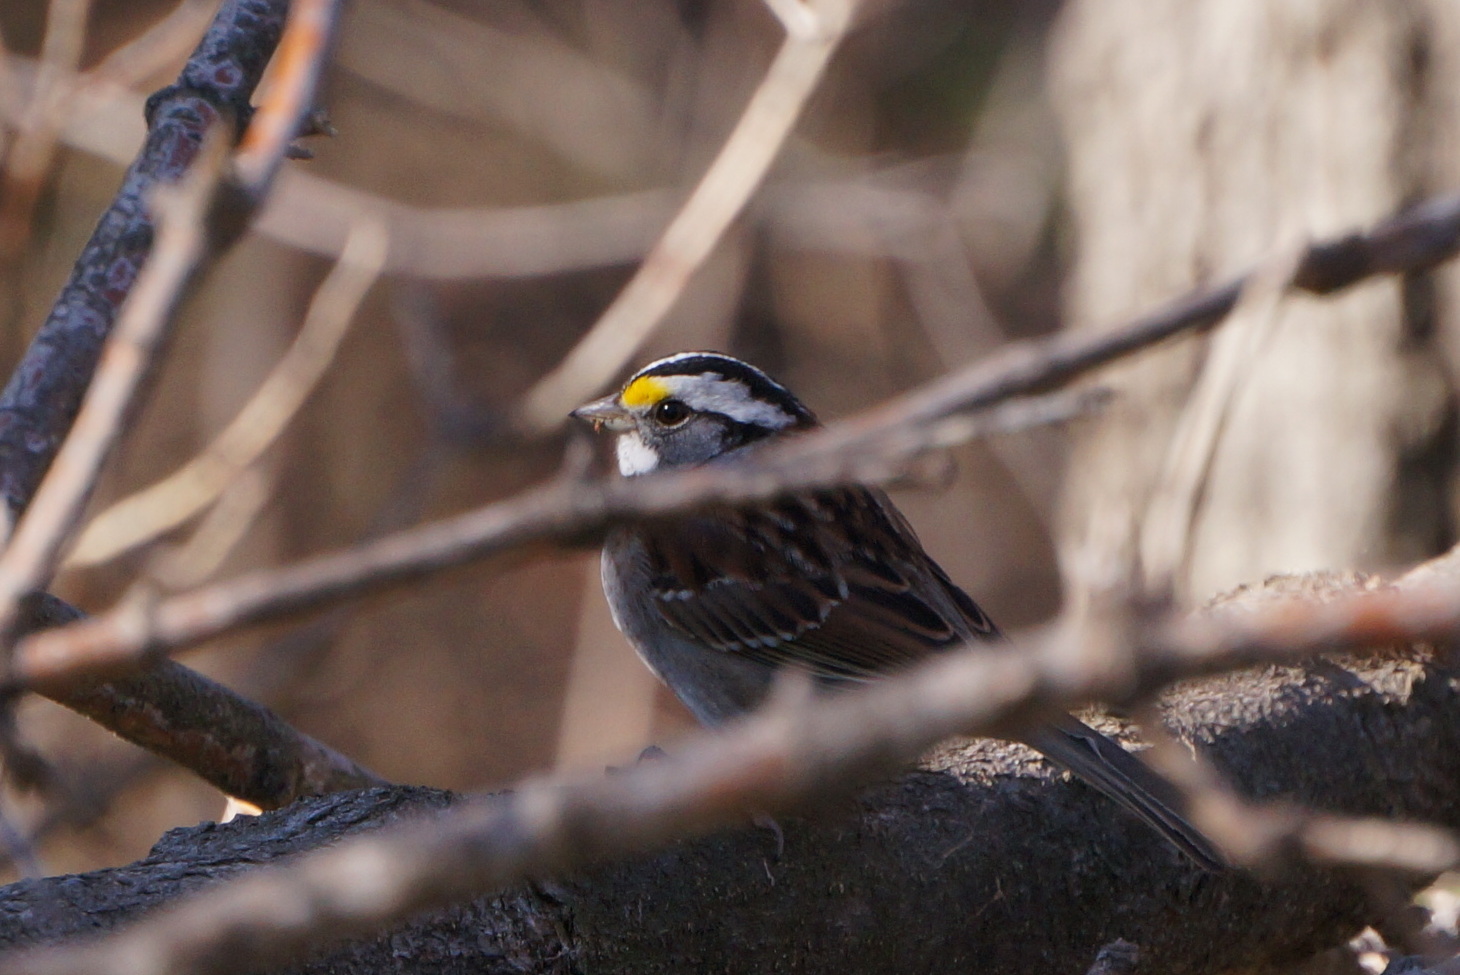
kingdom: Animalia
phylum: Chordata
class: Aves
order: Passeriformes
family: Passerellidae
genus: Zonotrichia
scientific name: Zonotrichia albicollis
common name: White-throated sparrow
